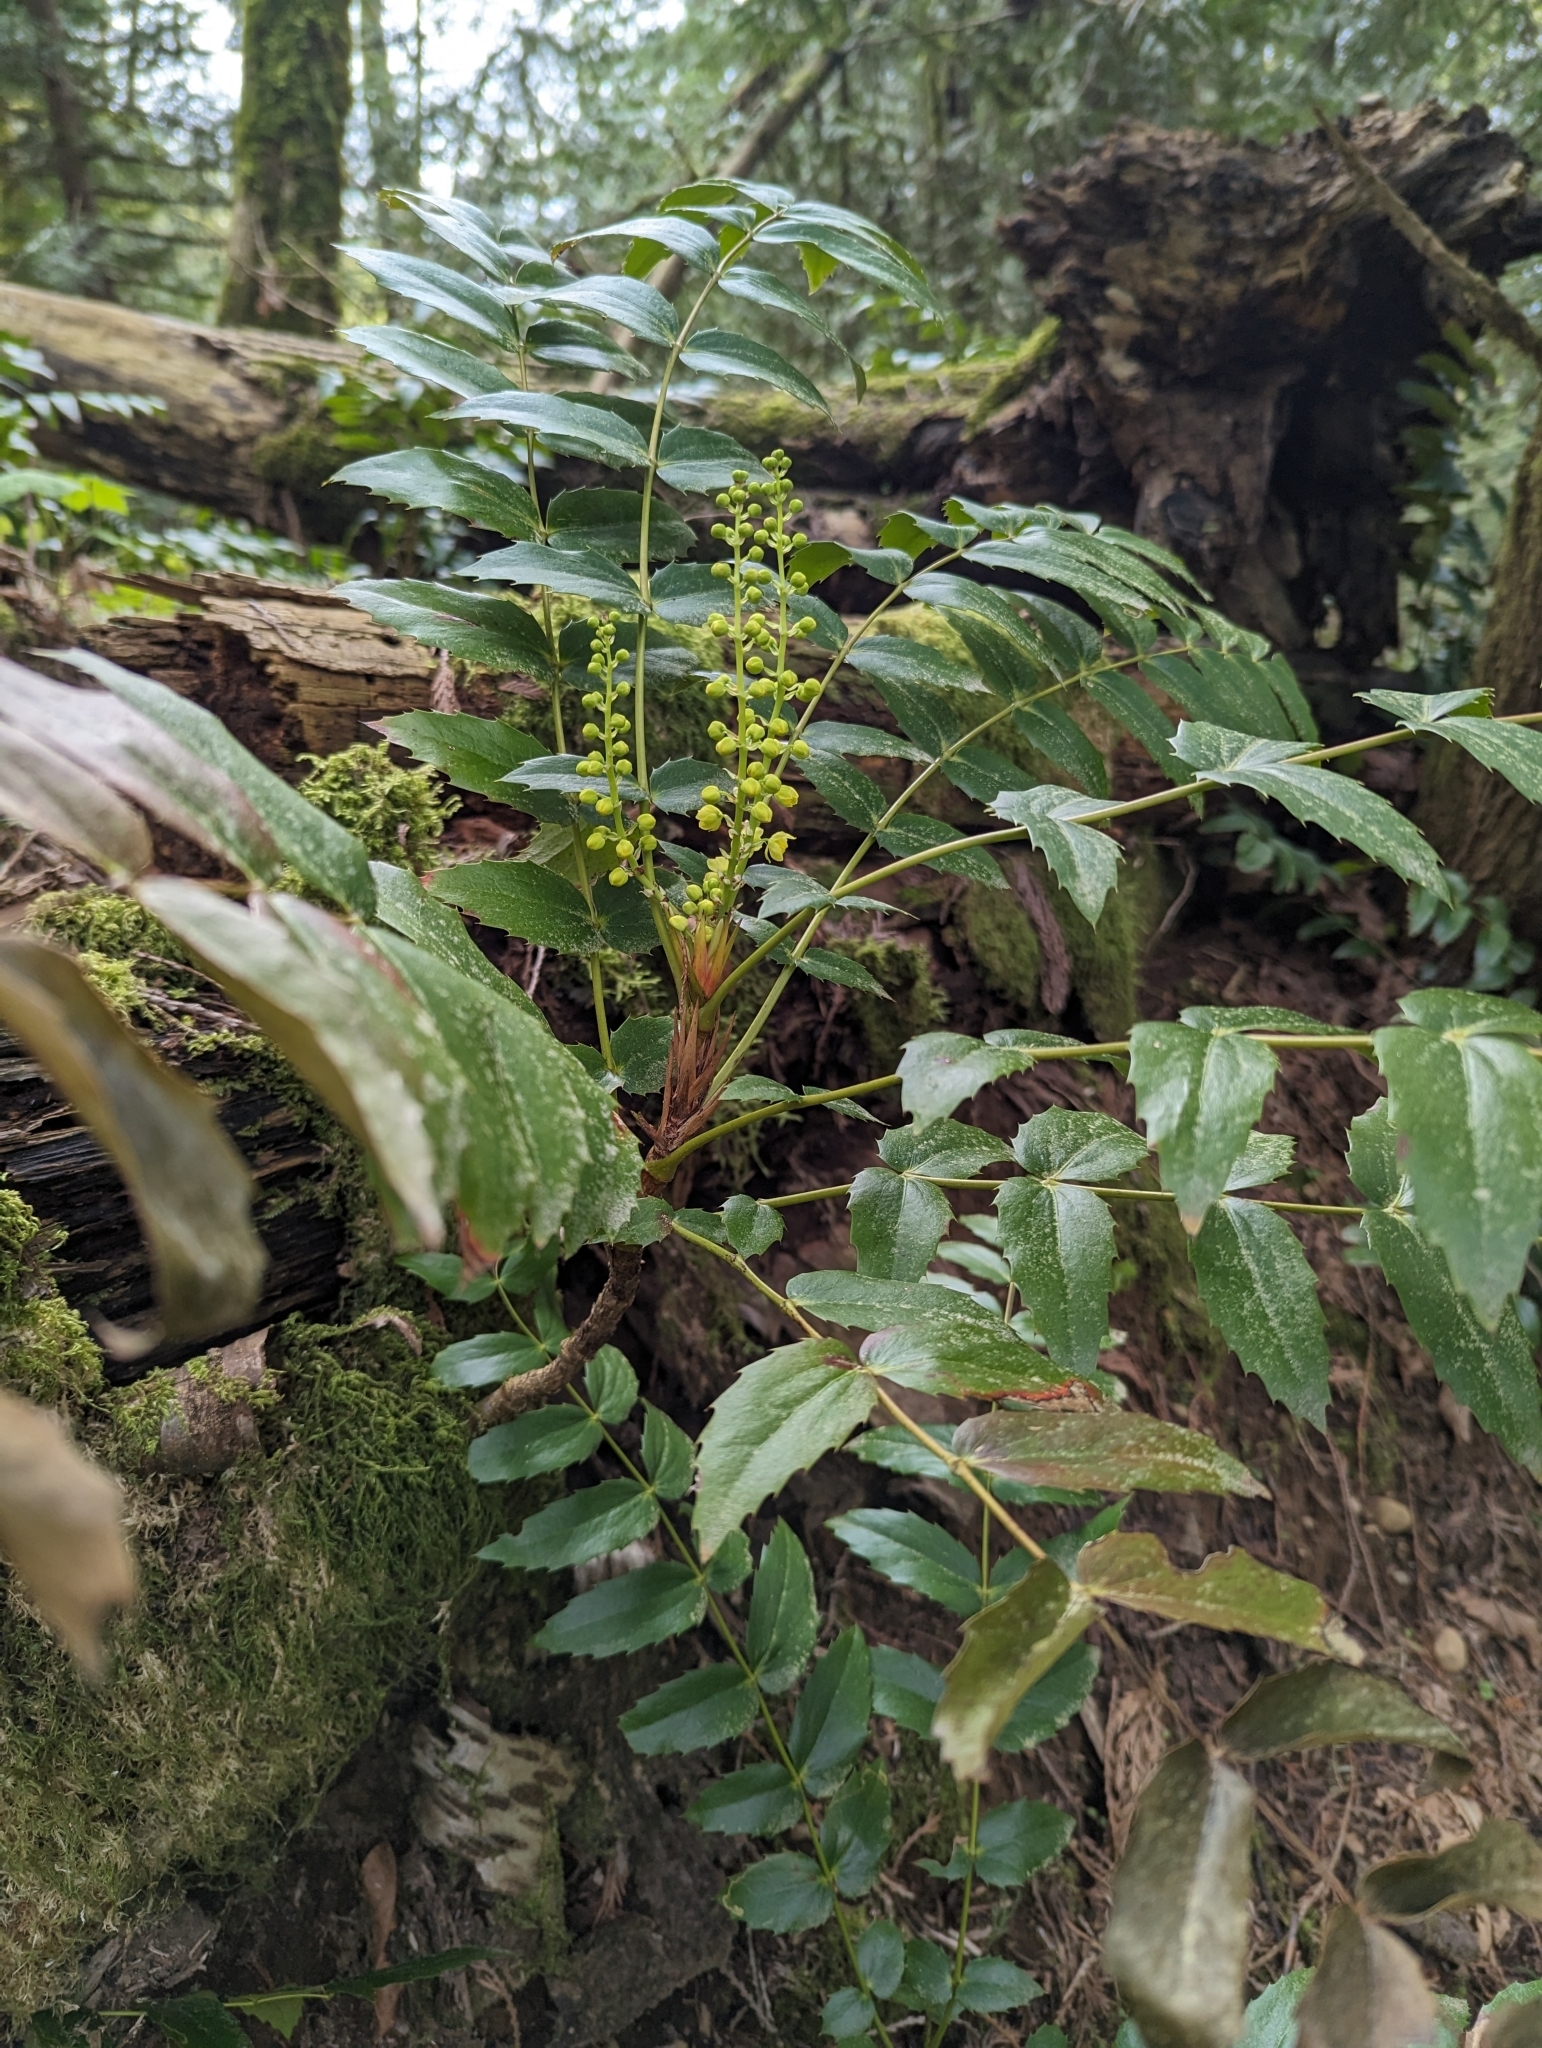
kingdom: Plantae
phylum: Tracheophyta
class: Magnoliopsida
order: Ranunculales
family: Berberidaceae
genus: Mahonia
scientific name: Mahonia nervosa
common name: Cascade oregon-grape
